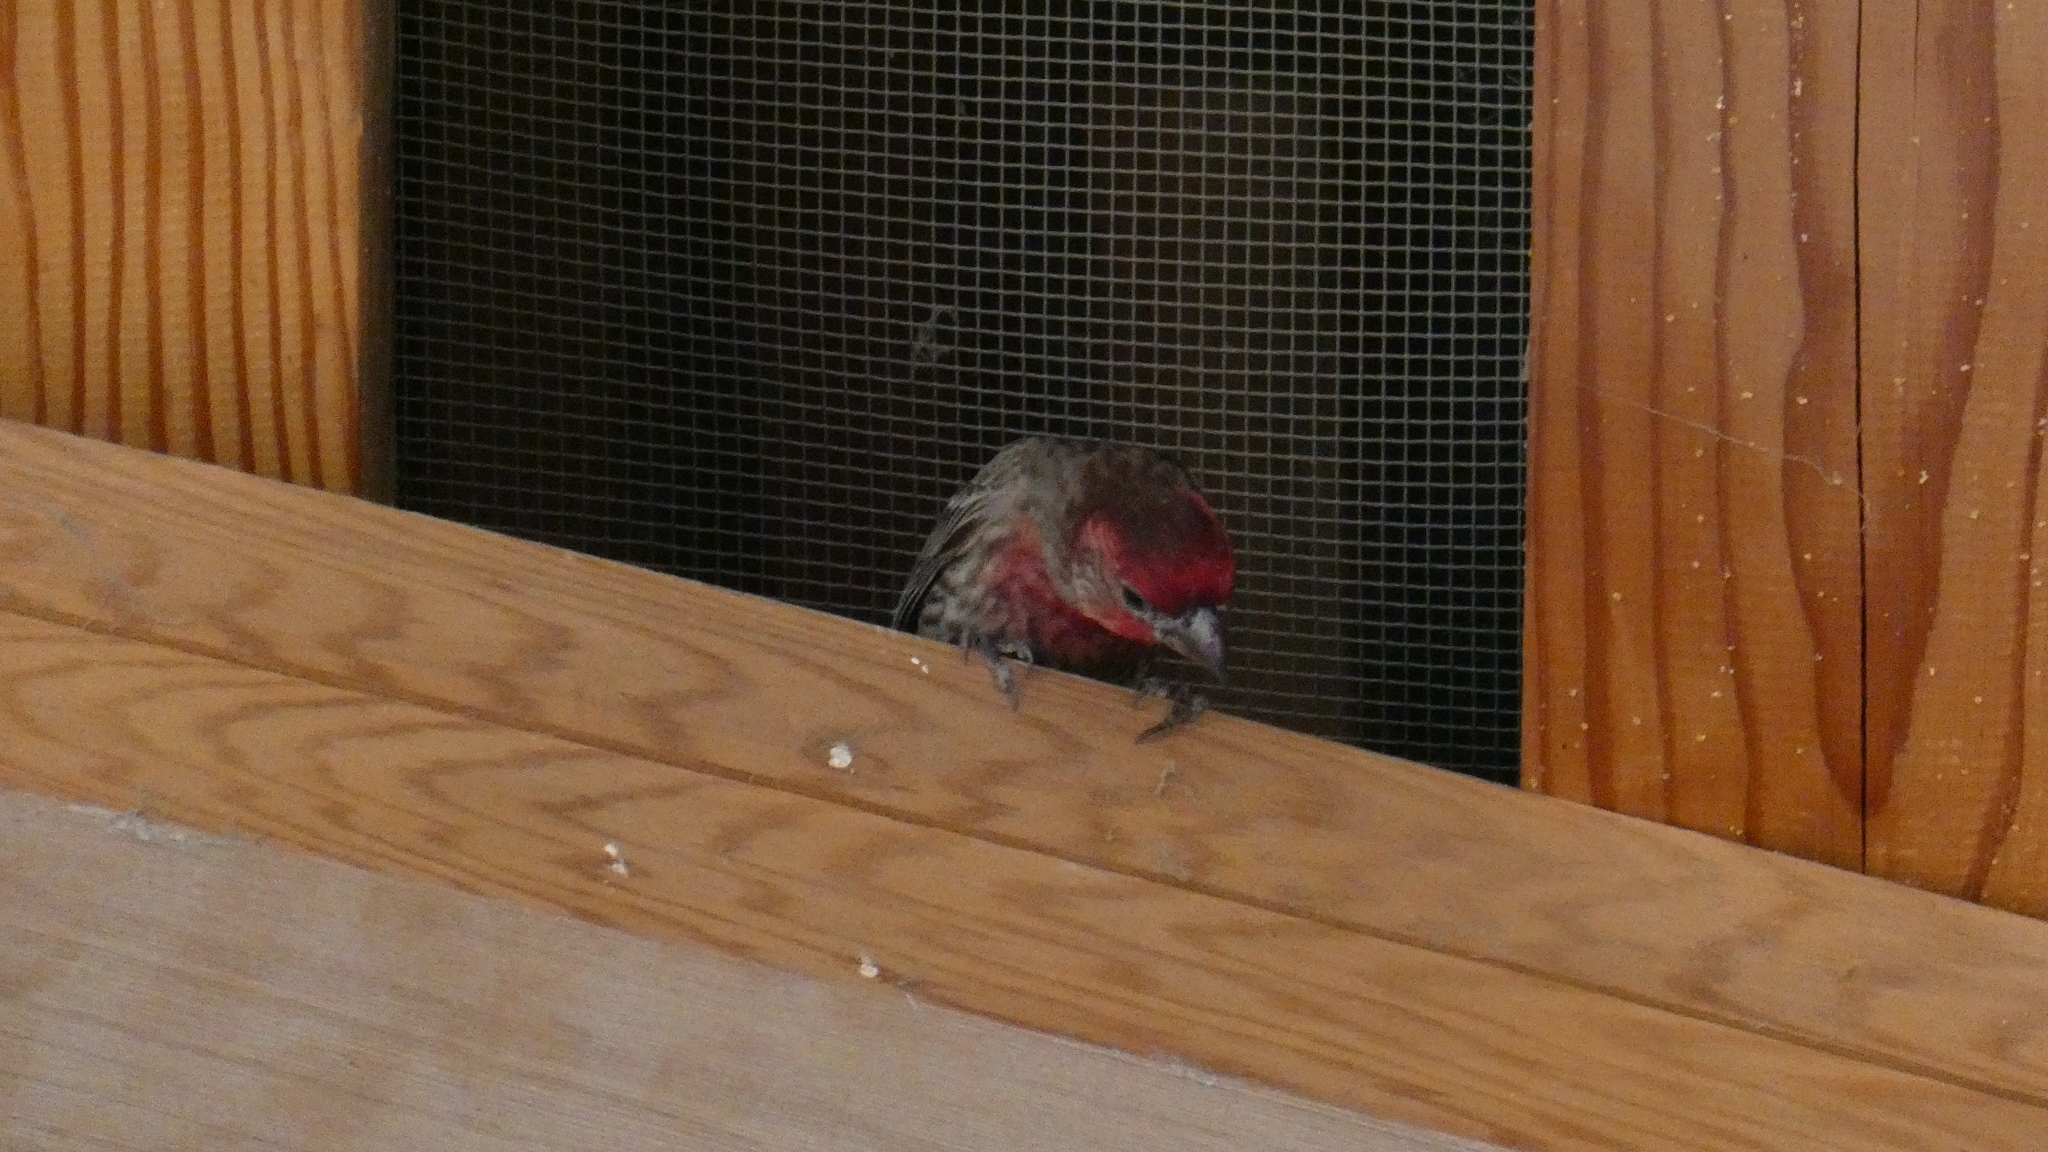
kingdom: Animalia
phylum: Chordata
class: Aves
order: Passeriformes
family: Fringillidae
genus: Haemorhous
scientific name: Haemorhous mexicanus
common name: House finch
